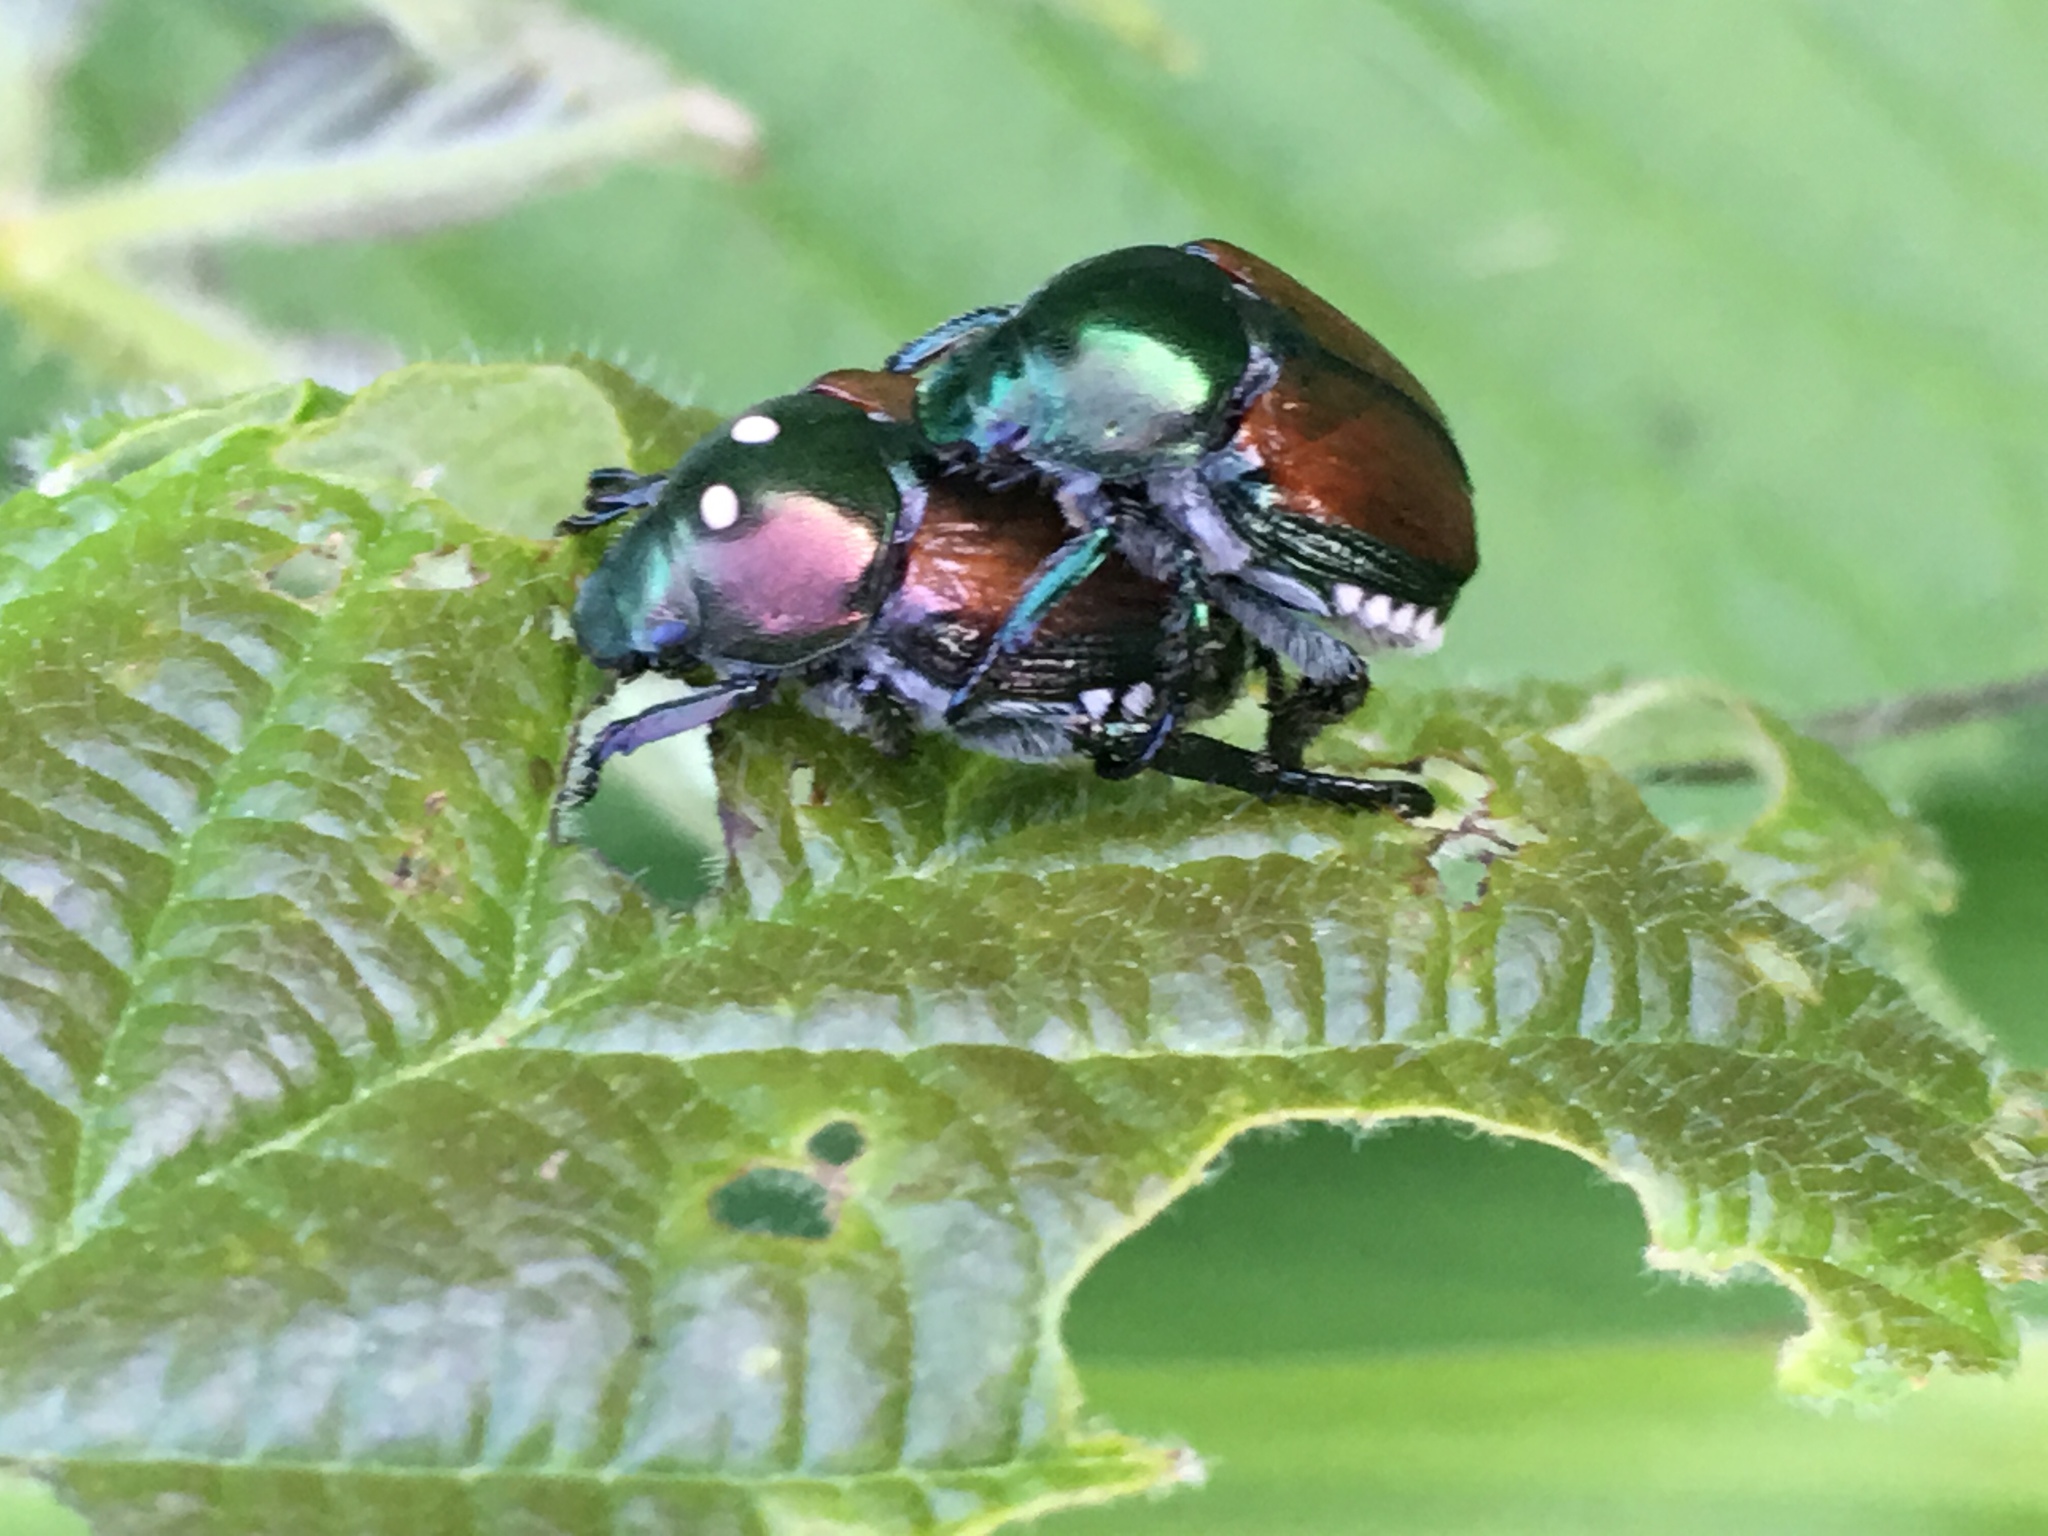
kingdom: Animalia
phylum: Arthropoda
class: Insecta
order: Coleoptera
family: Scarabaeidae
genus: Popillia
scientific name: Popillia japonica
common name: Japanese beetle
